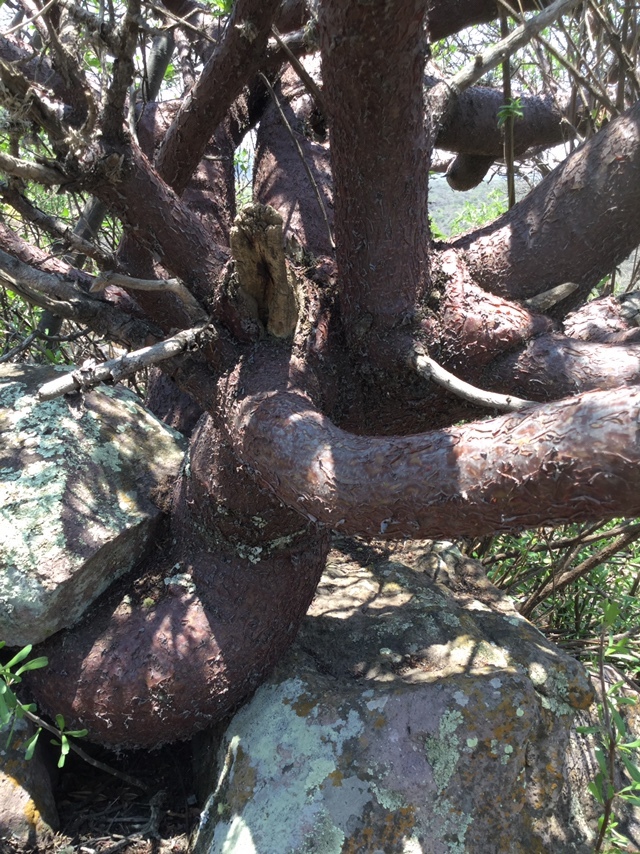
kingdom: Plantae
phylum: Tracheophyta
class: Magnoliopsida
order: Sapindales
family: Burseraceae
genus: Bursera
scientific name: Bursera galeottiana
